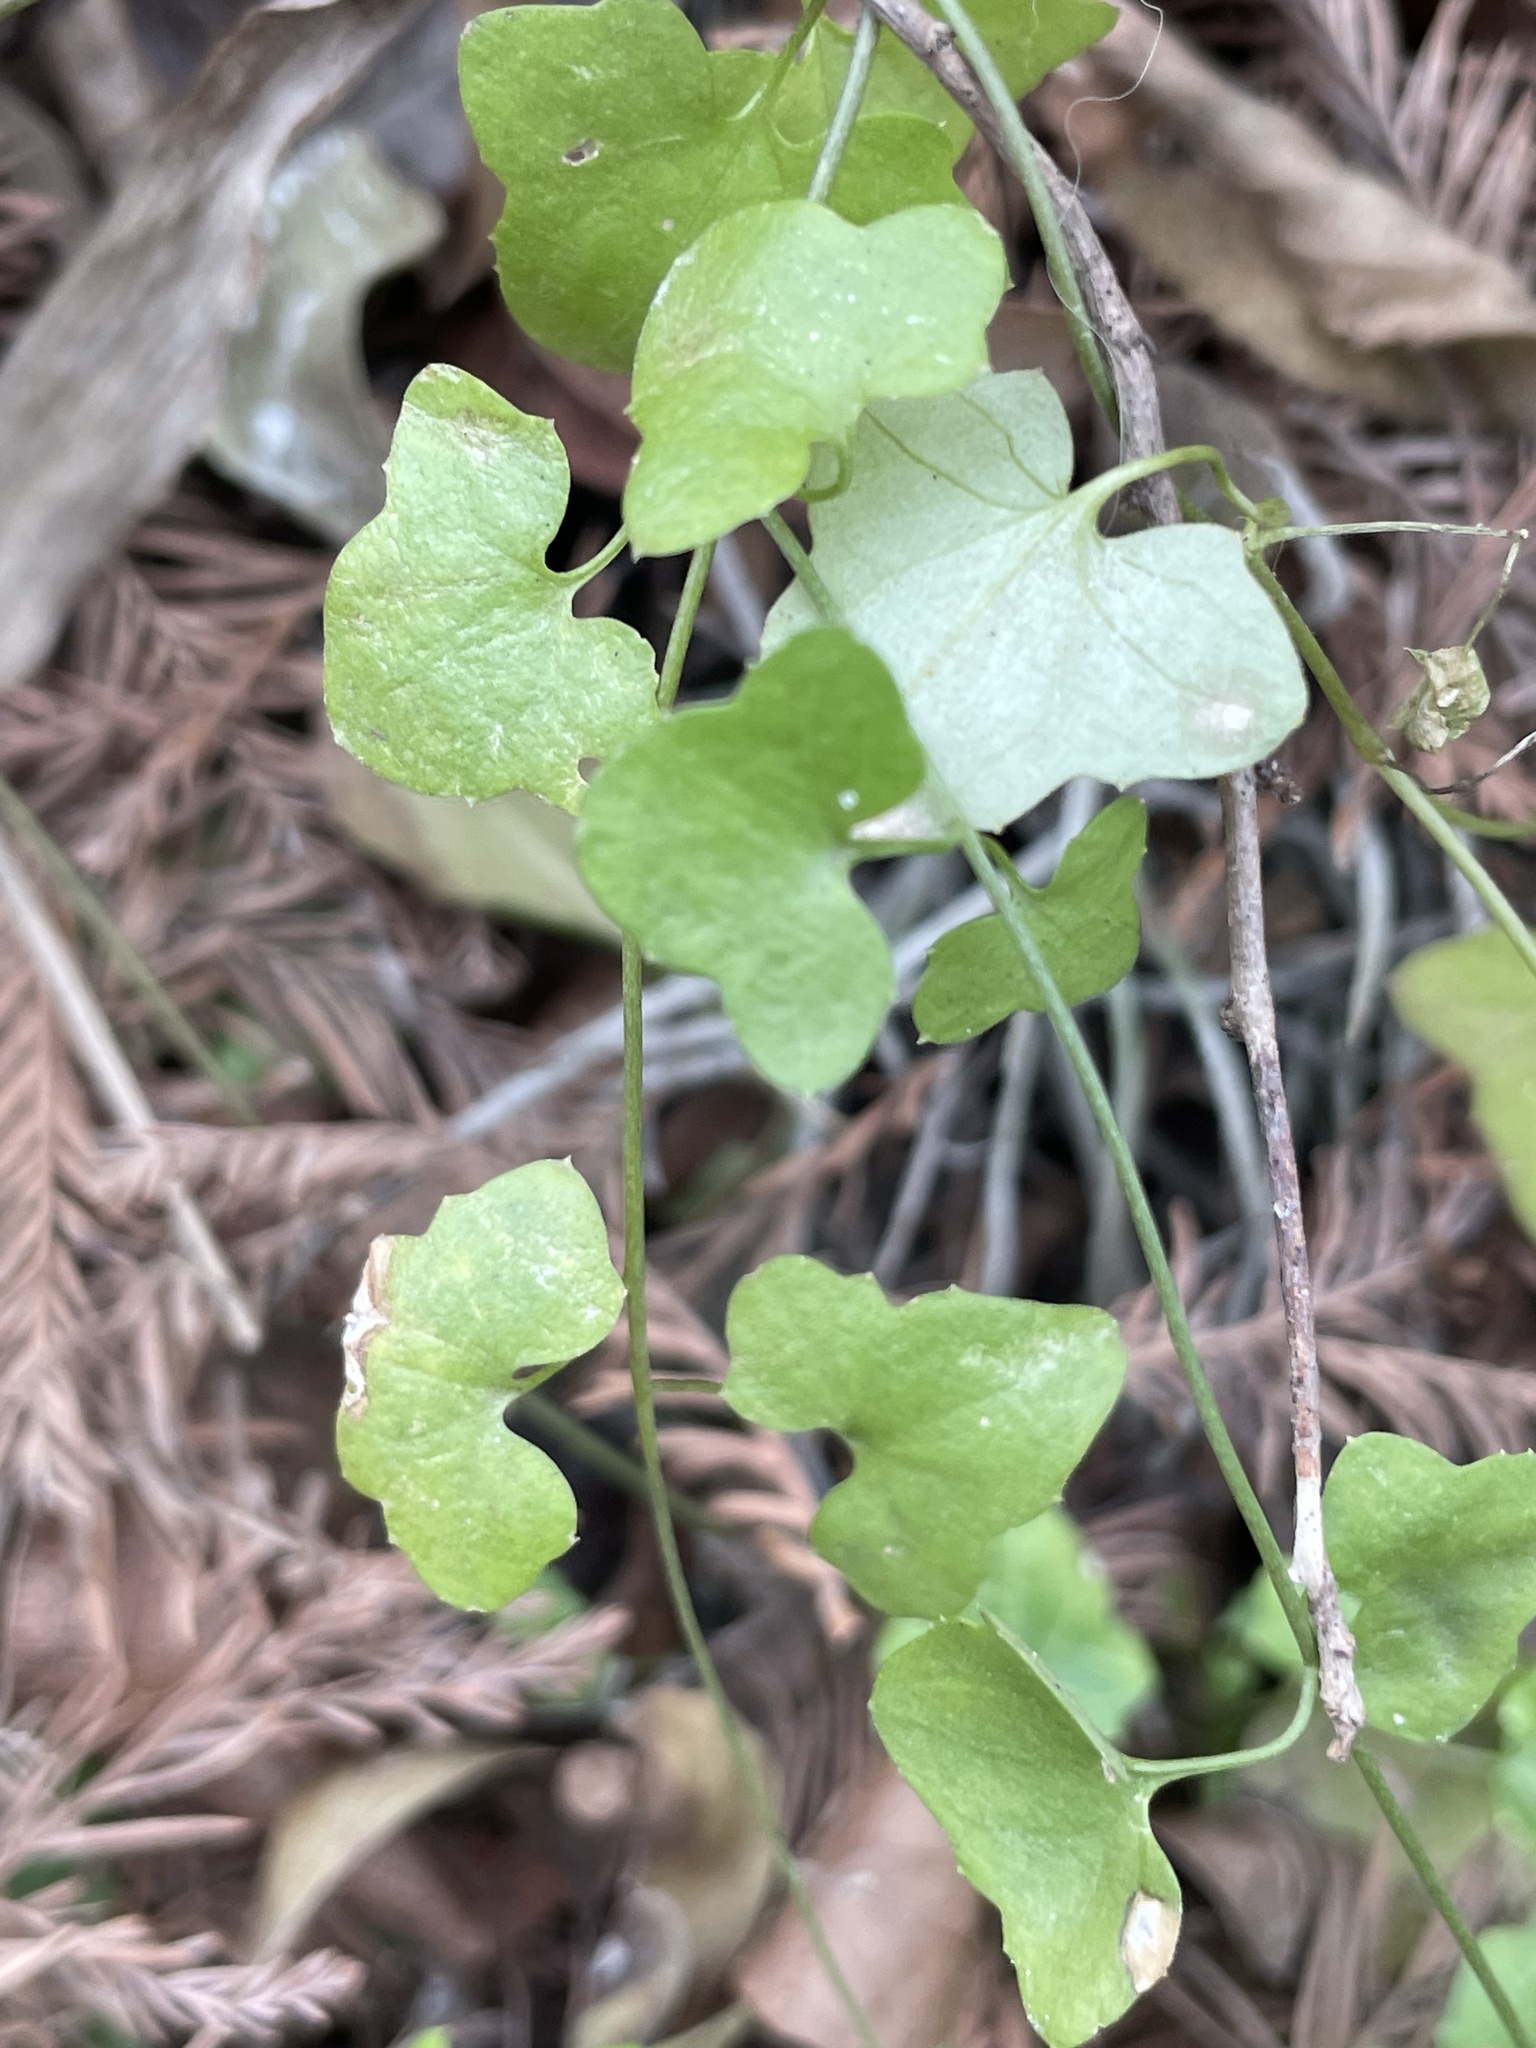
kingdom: Plantae
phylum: Tracheophyta
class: Magnoliopsida
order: Lamiales
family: Plantaginaceae
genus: Maurandella
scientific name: Maurandella antirrhiniflora
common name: Violet twining-snapdragon
